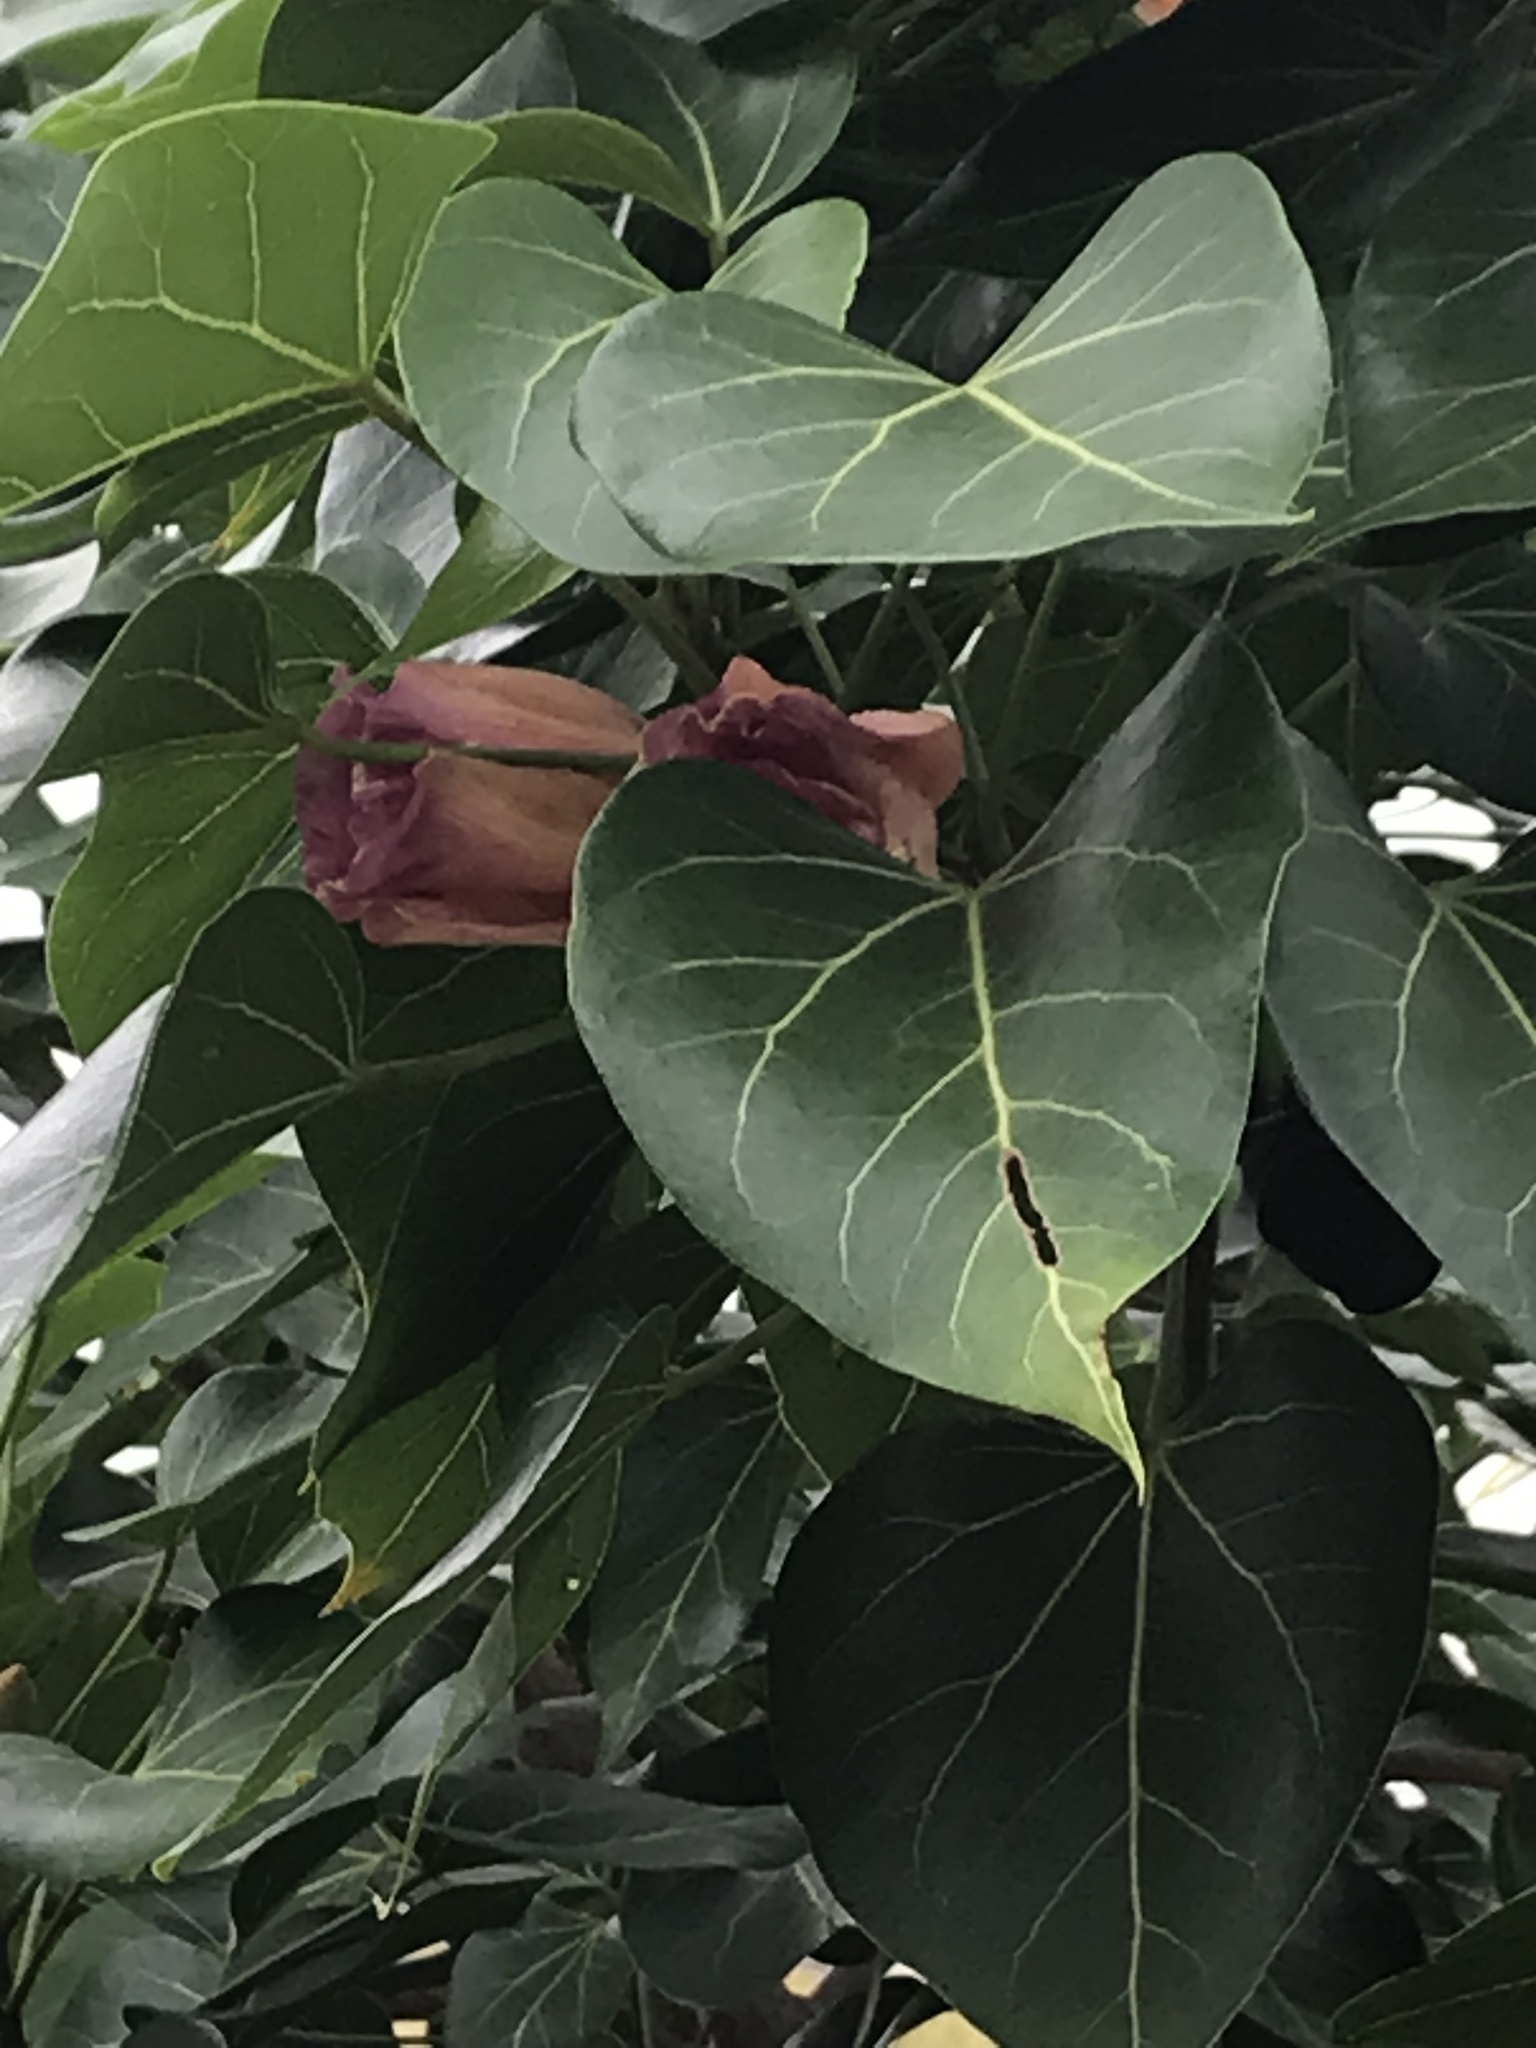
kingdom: Plantae
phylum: Tracheophyta
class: Magnoliopsida
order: Malvales
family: Malvaceae
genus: Thespesia
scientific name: Thespesia populnea
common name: Seaside mahoe
